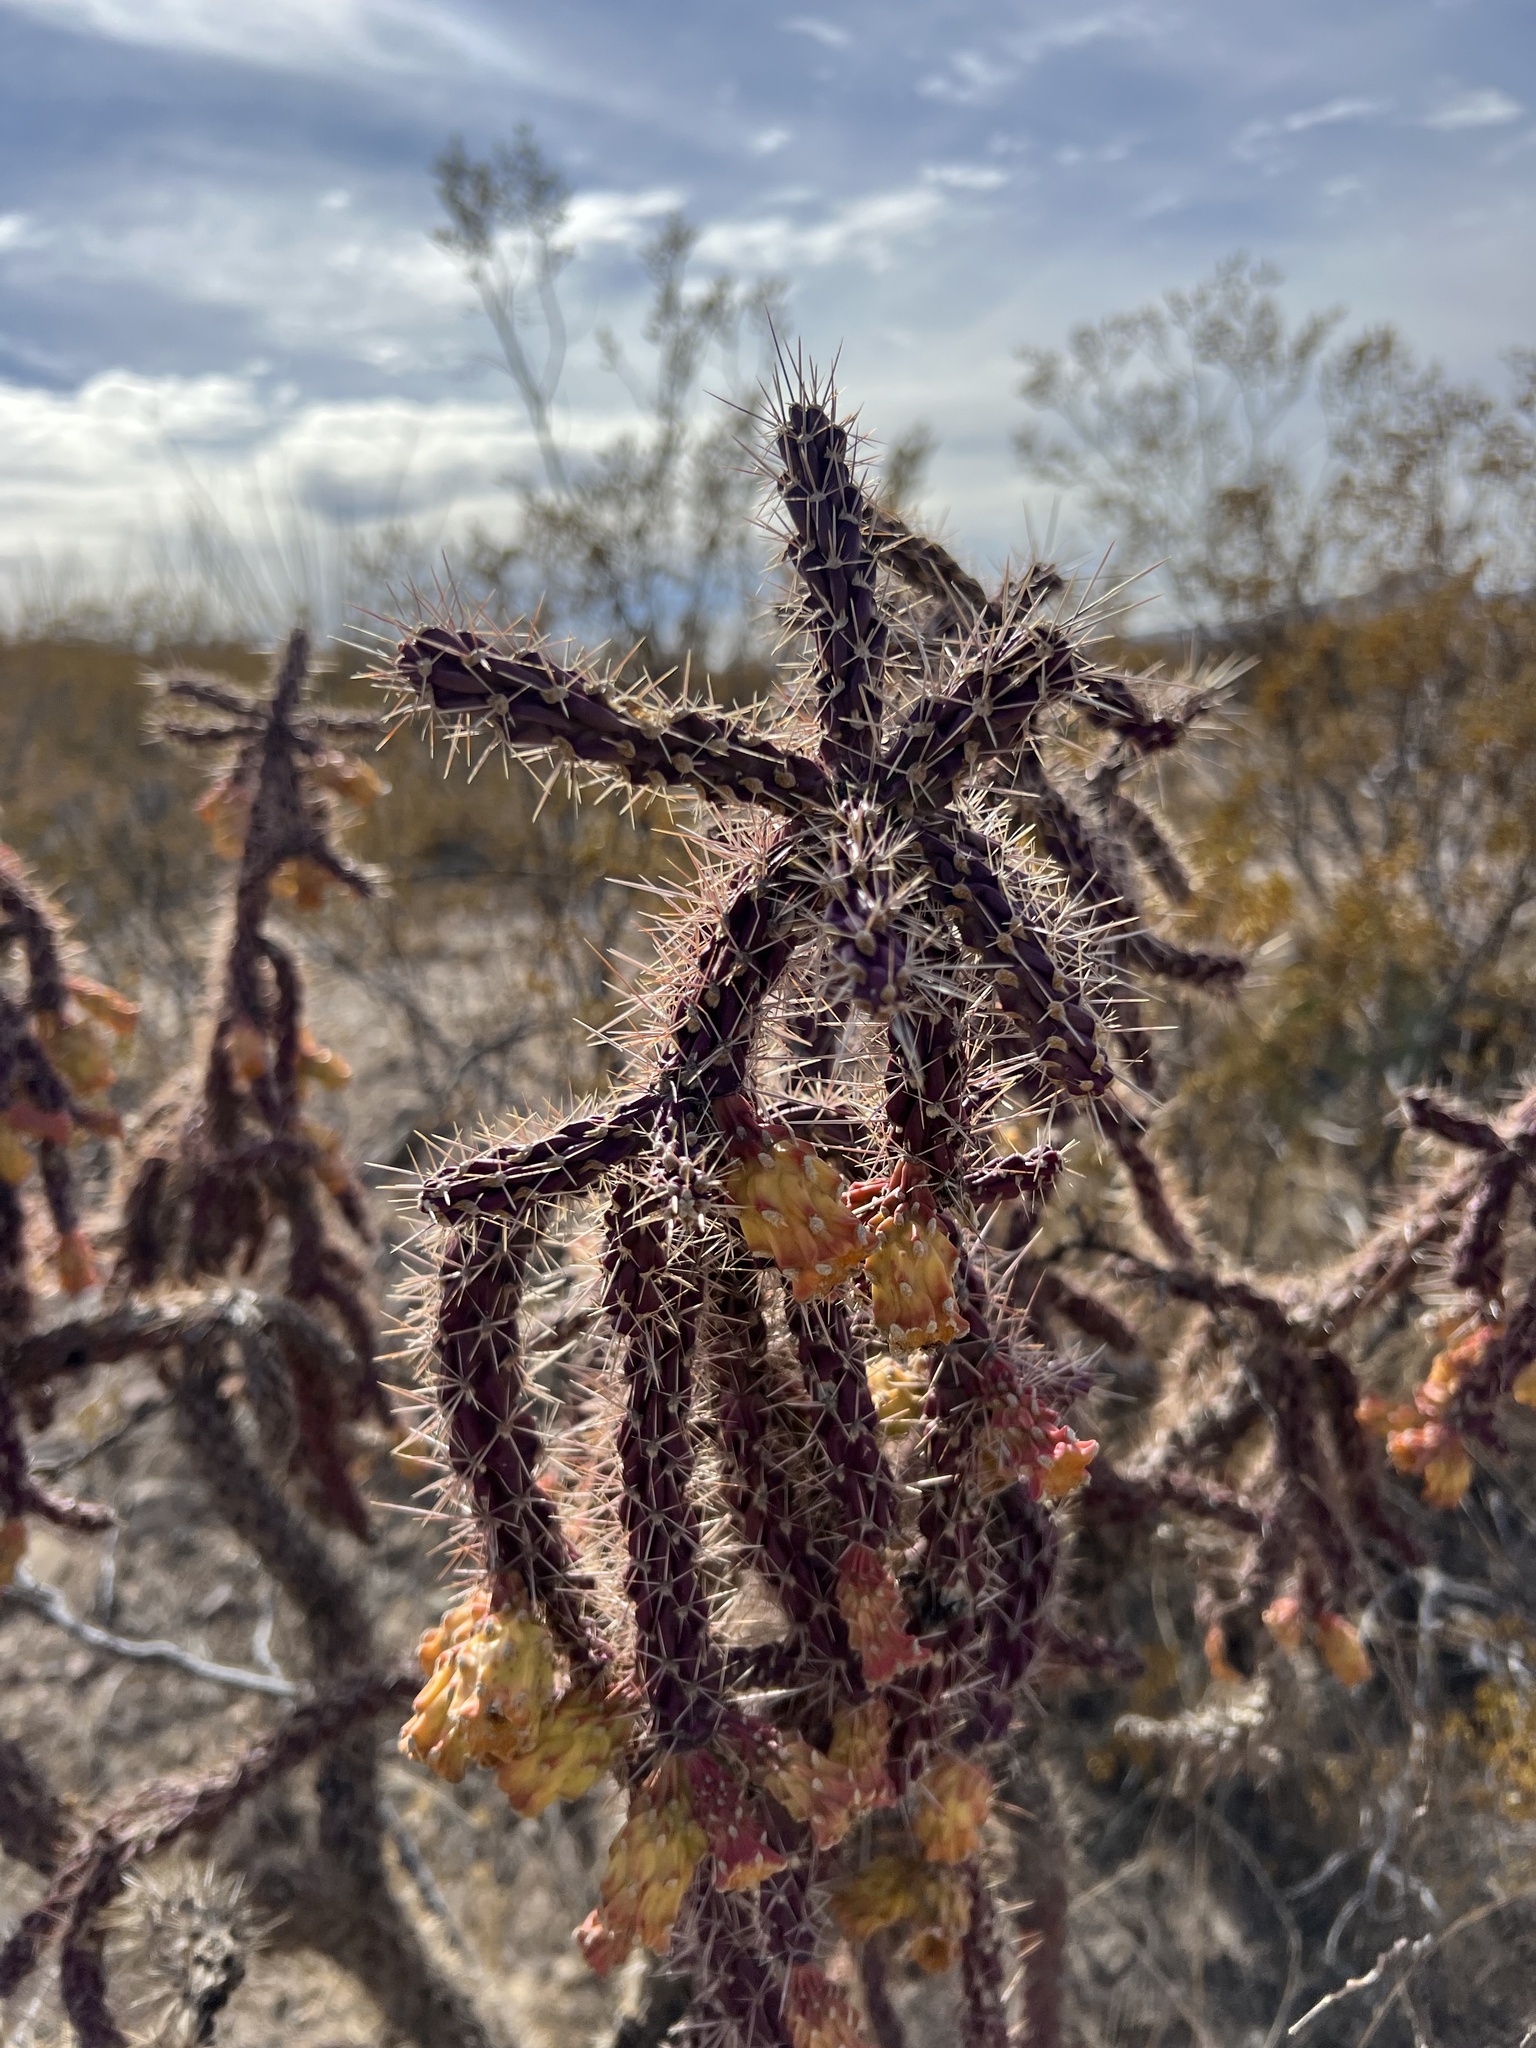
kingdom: Plantae
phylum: Tracheophyta
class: Magnoliopsida
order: Caryophyllales
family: Cactaceae
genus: Cylindropuntia
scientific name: Cylindropuntia imbricata
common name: Candelabrum cactus
